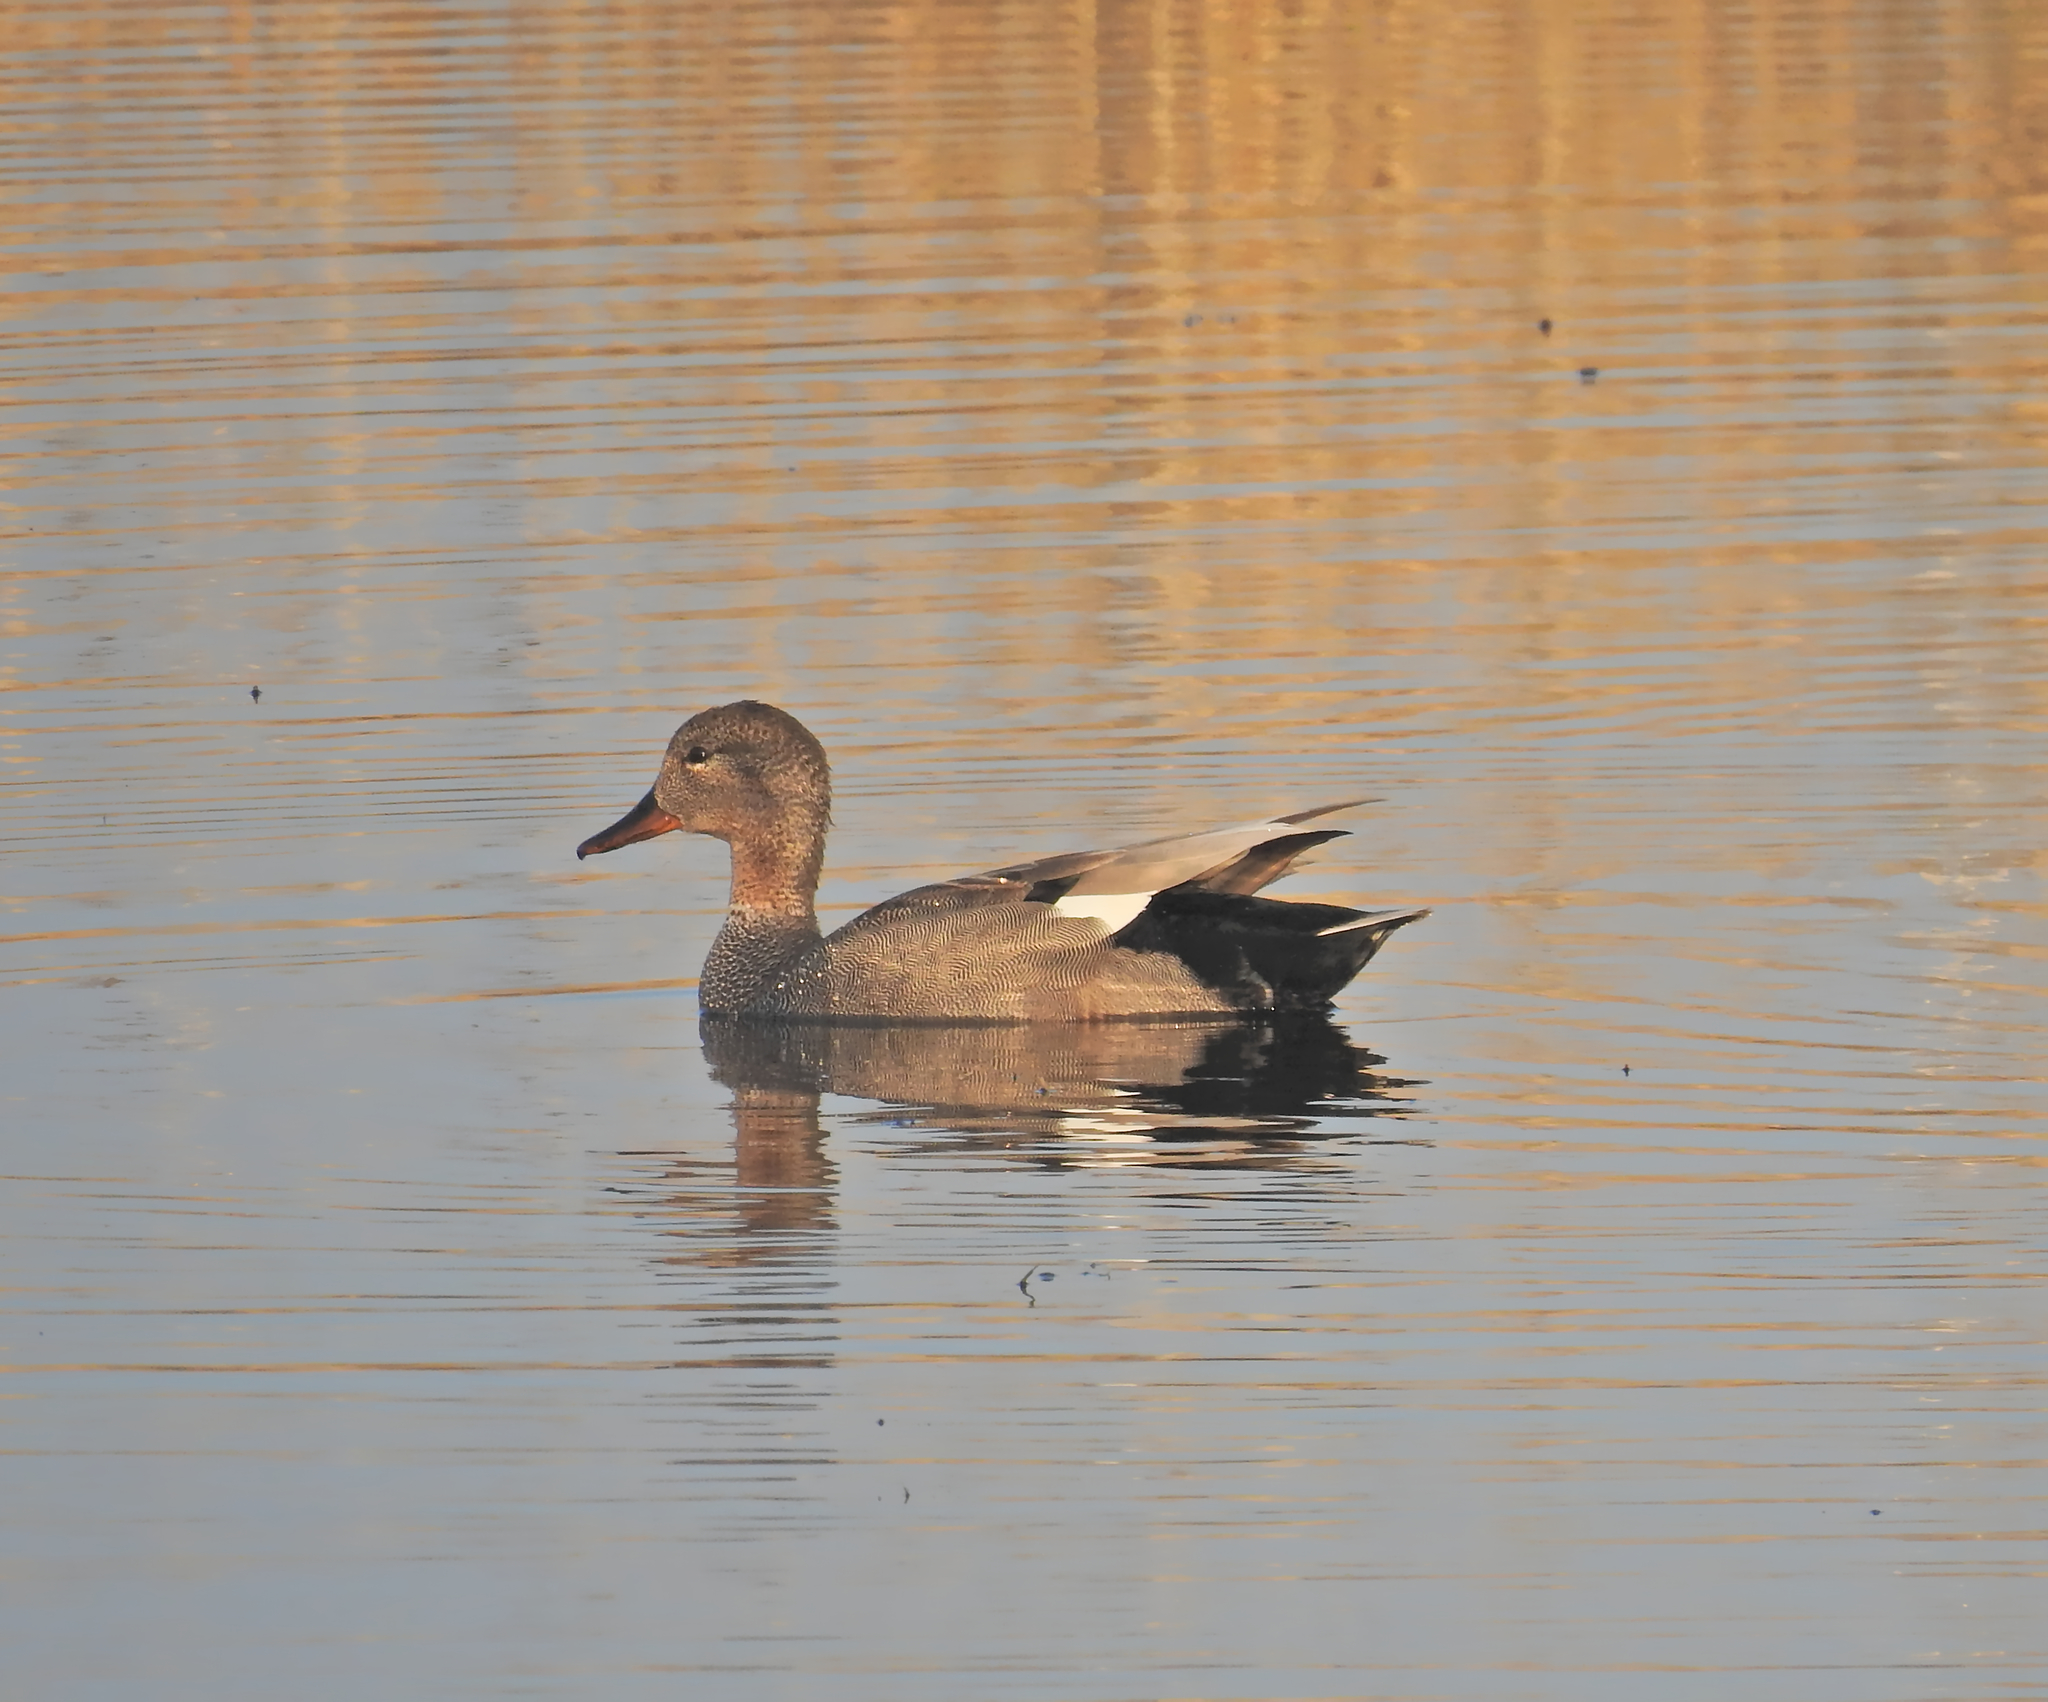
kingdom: Animalia
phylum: Chordata
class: Aves
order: Anseriformes
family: Anatidae
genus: Mareca
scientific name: Mareca strepera
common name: Gadwall
